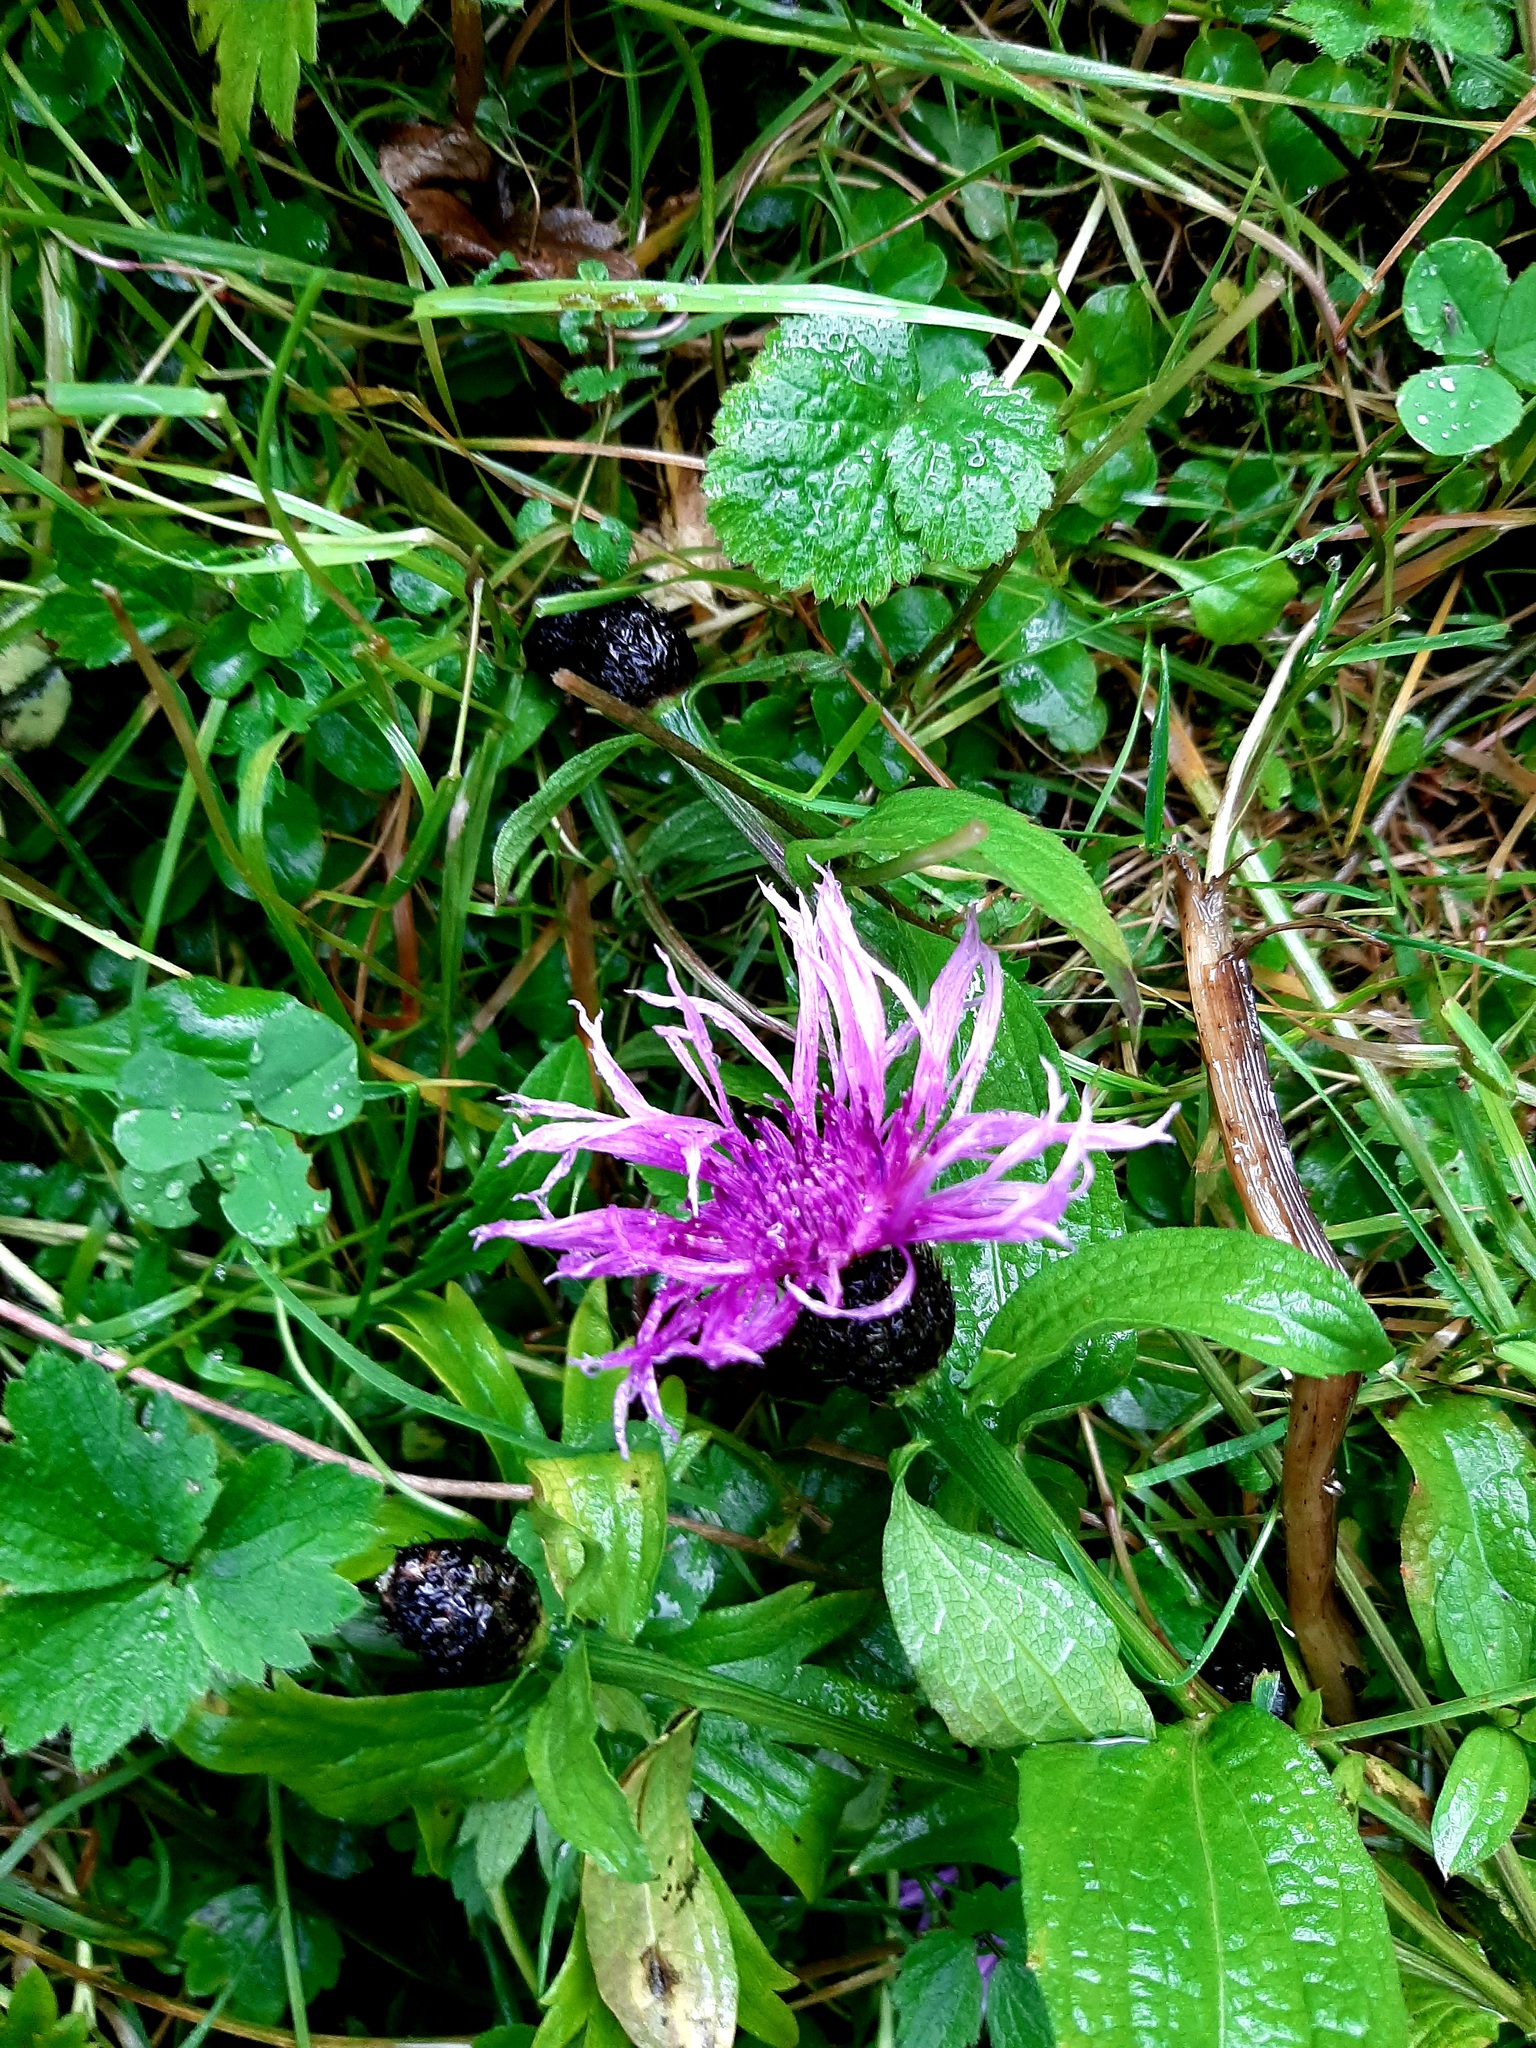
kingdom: Plantae
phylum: Tracheophyta
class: Magnoliopsida
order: Asterales
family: Asteraceae
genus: Centaurea
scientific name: Centaurea phrygia
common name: Wig knapweed
